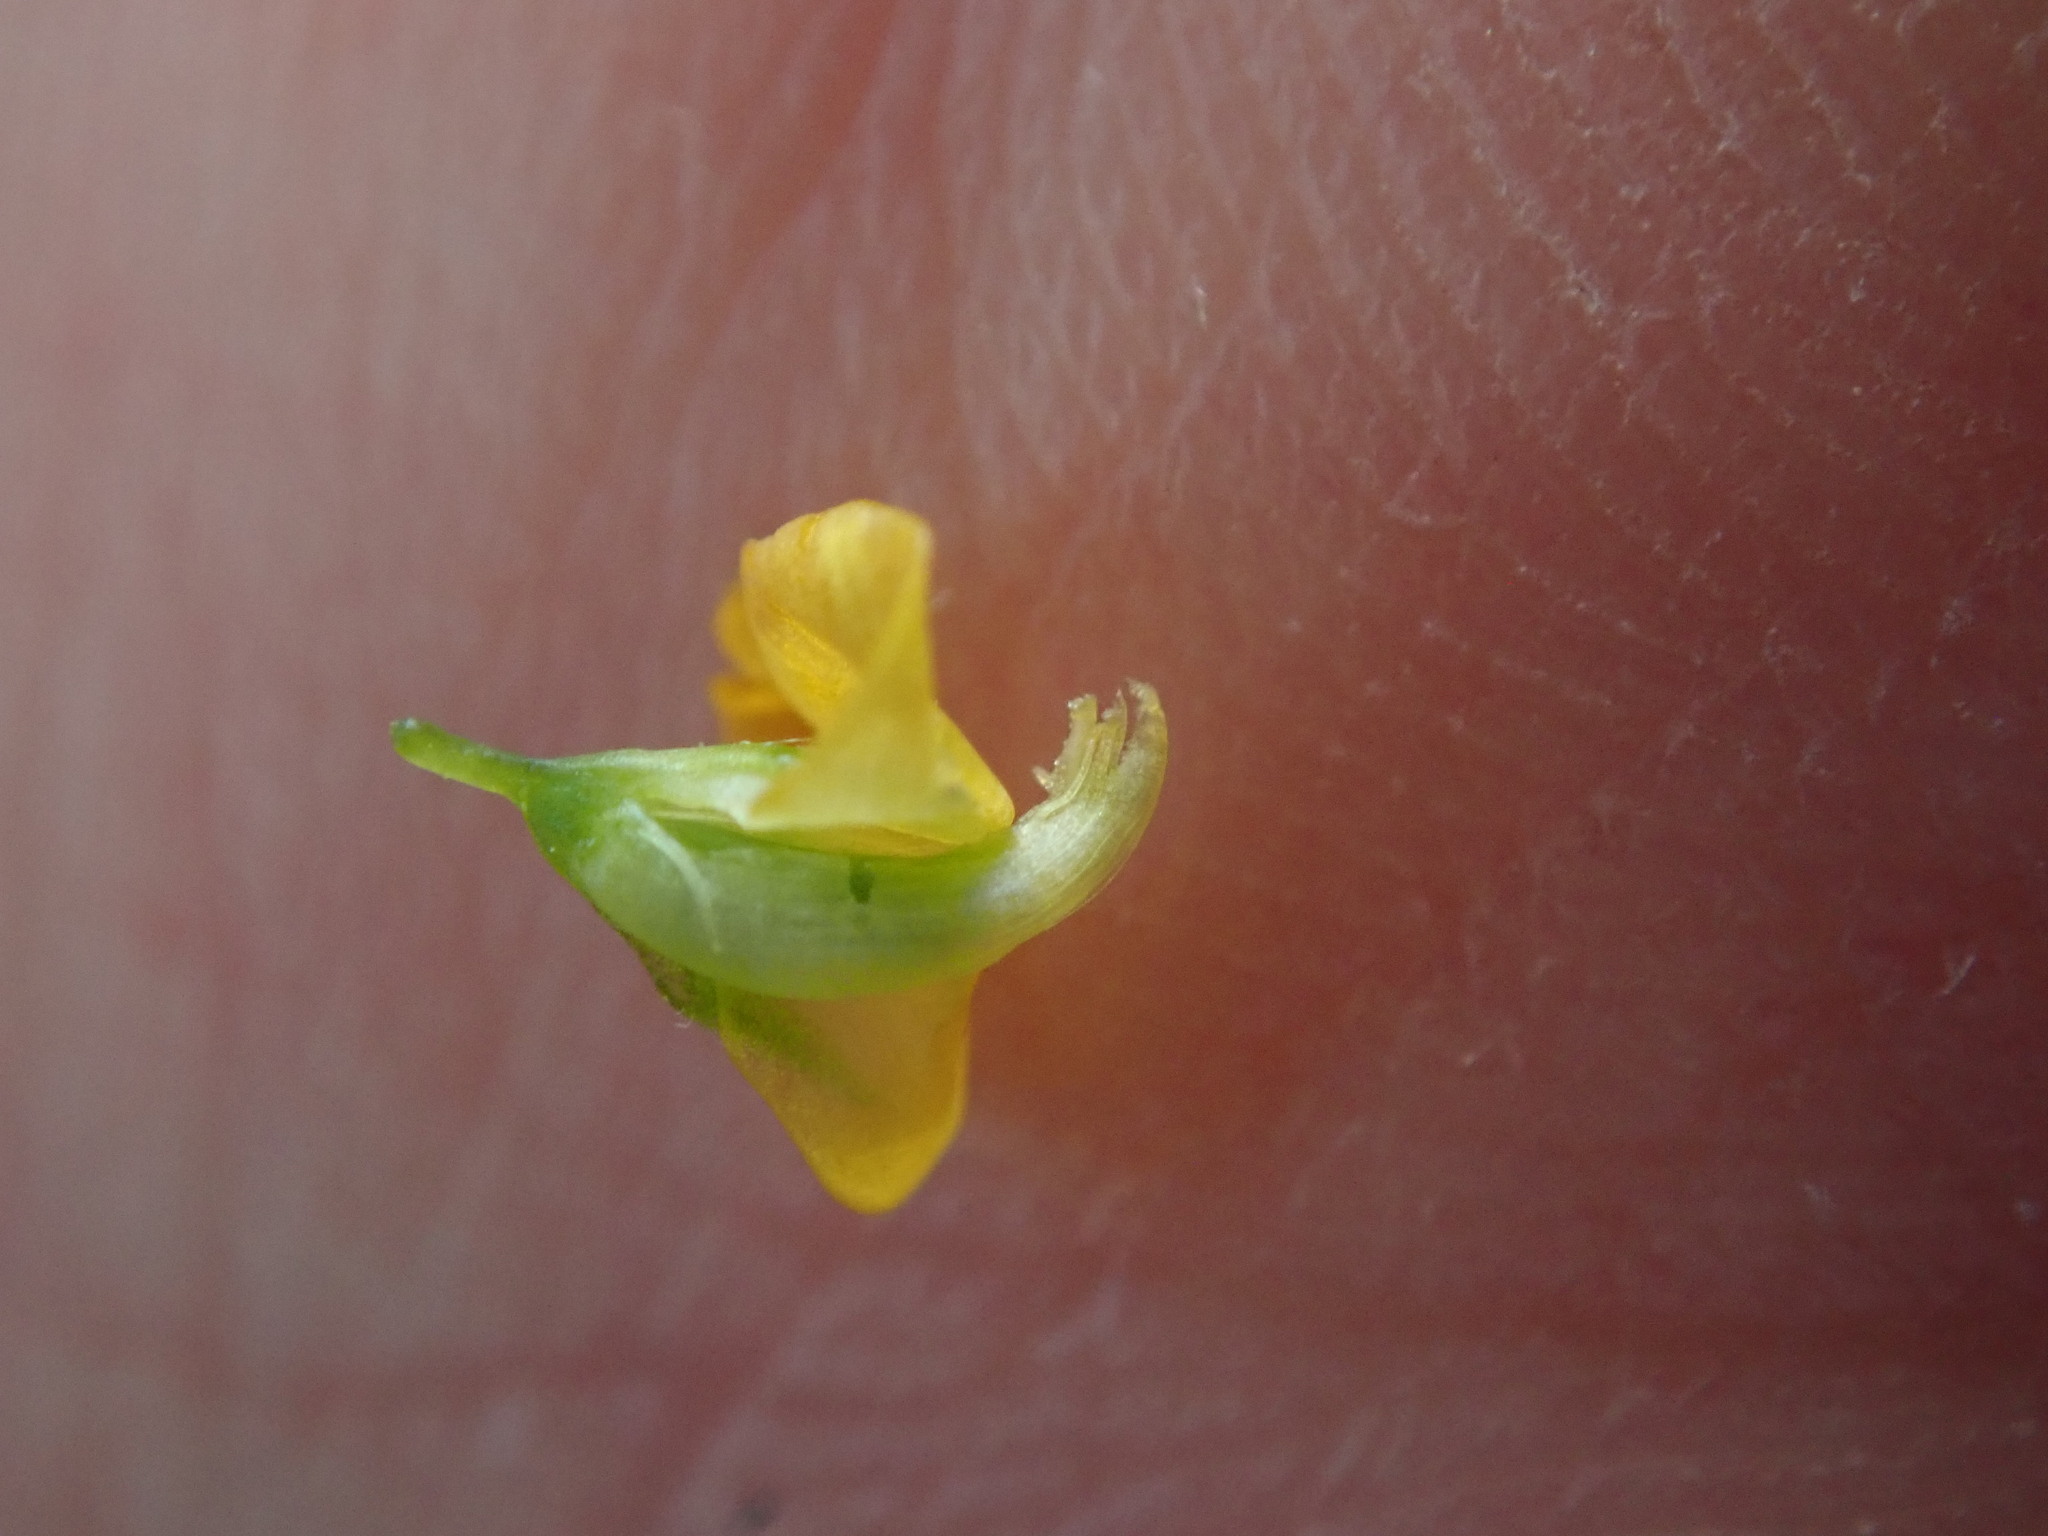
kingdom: Plantae
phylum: Tracheophyta
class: Magnoliopsida
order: Fabales
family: Fabaceae
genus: Medicago
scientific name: Medicago arabica
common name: Spotted medick
